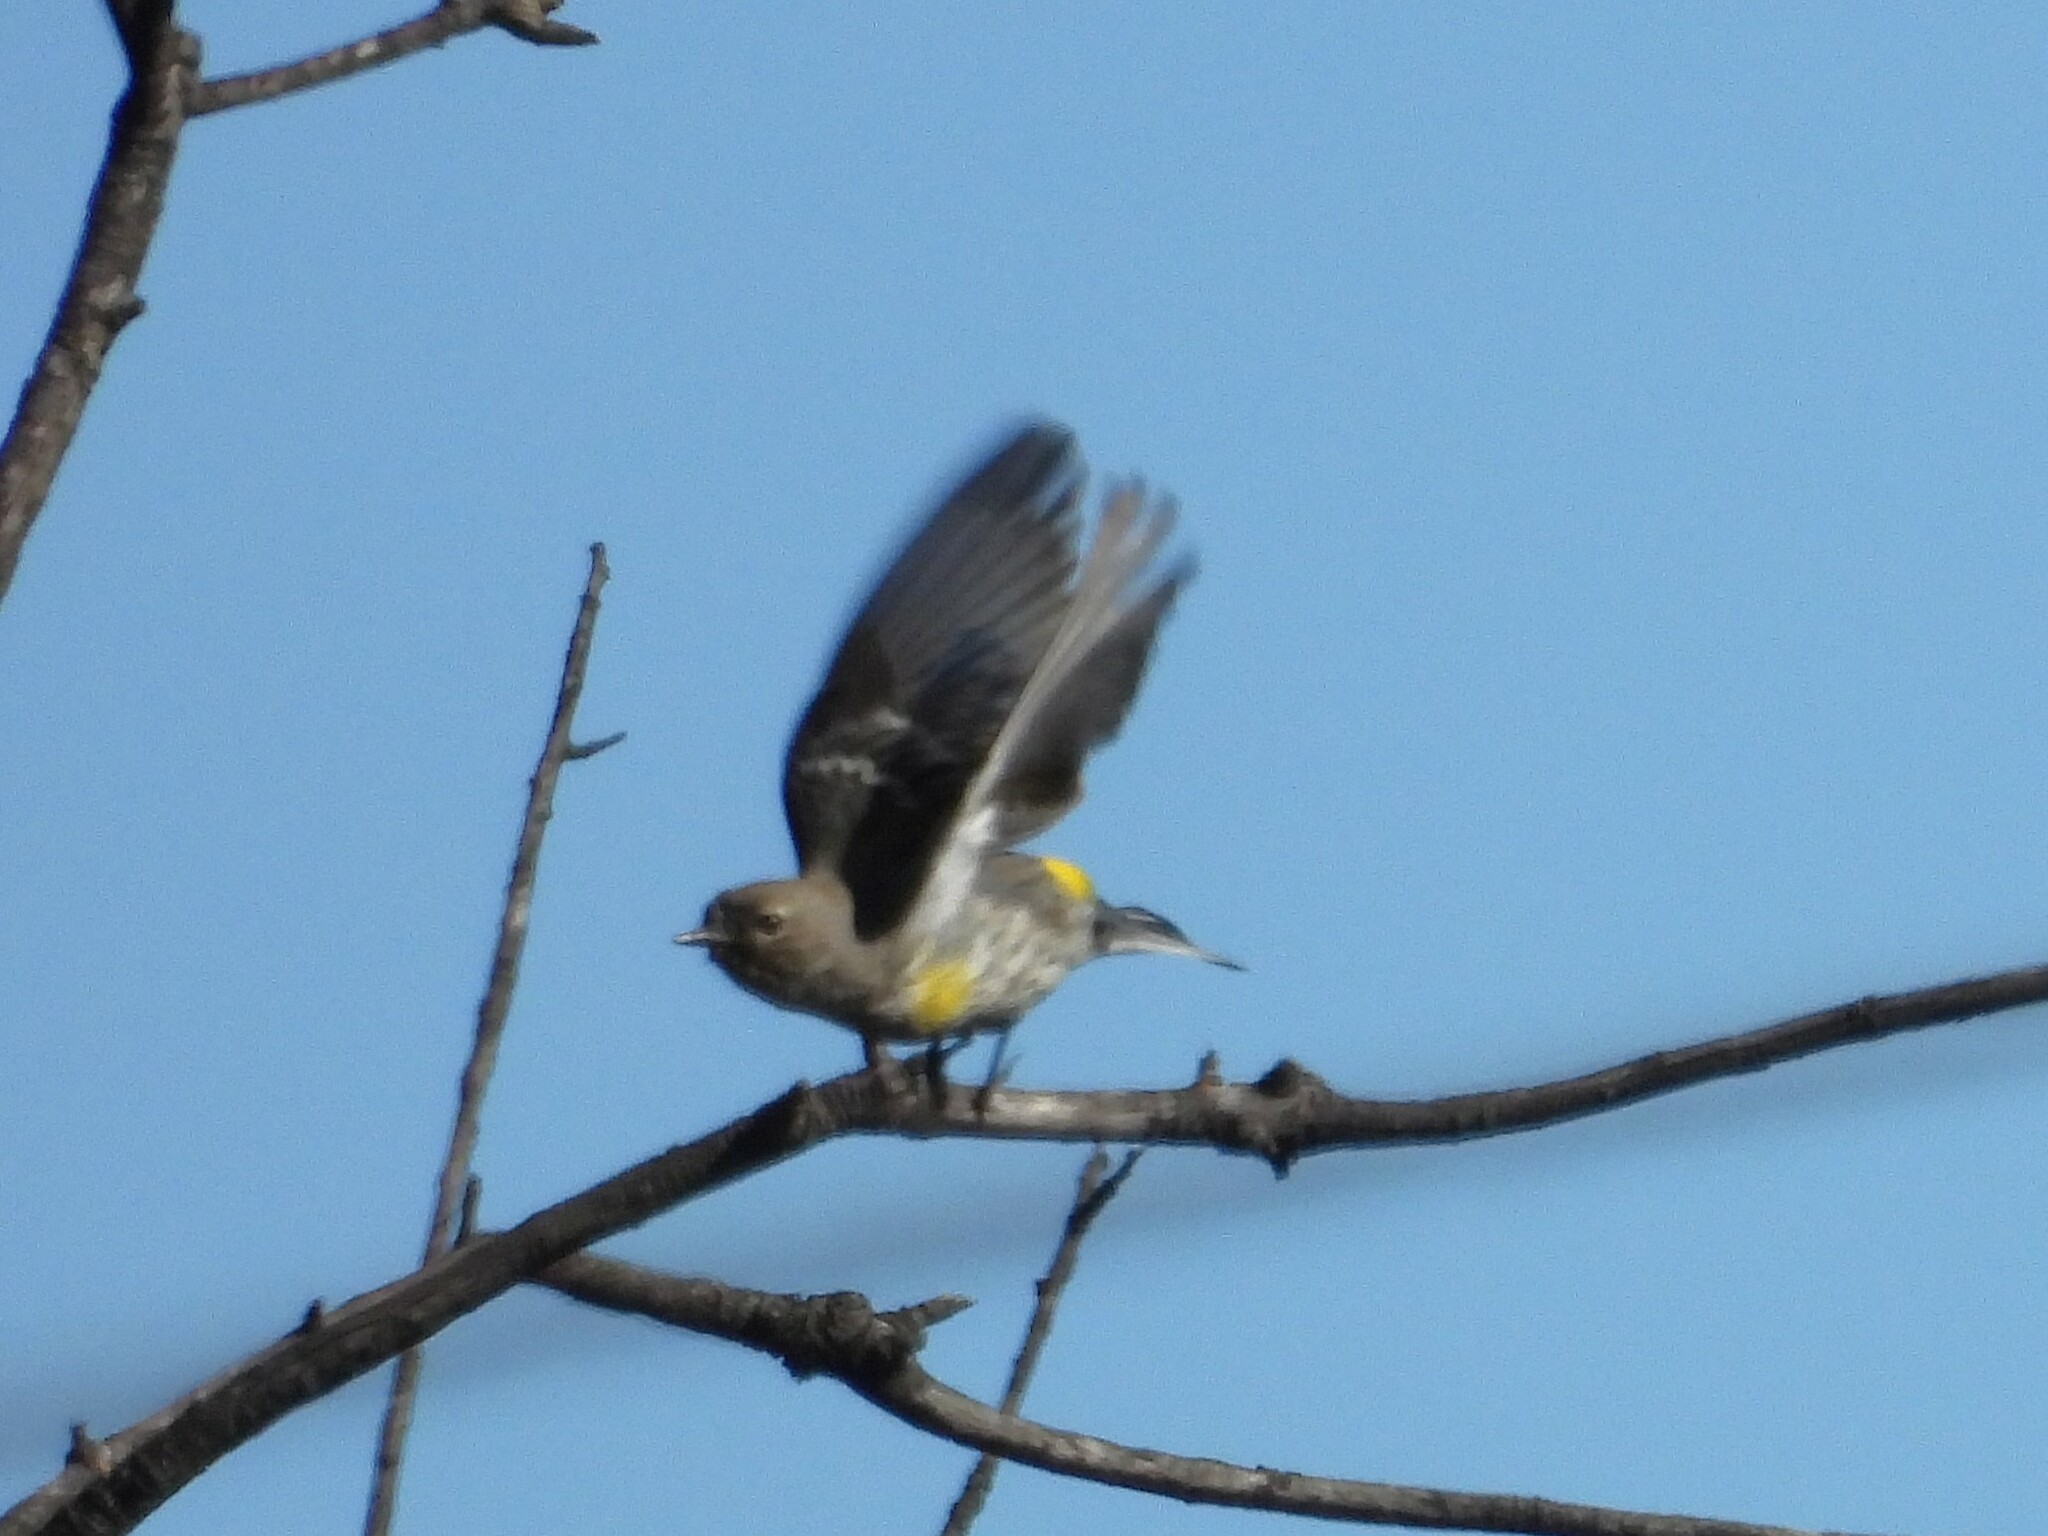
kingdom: Animalia
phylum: Chordata
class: Aves
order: Passeriformes
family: Parulidae
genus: Setophaga
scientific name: Setophaga coronata
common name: Myrtle warbler
